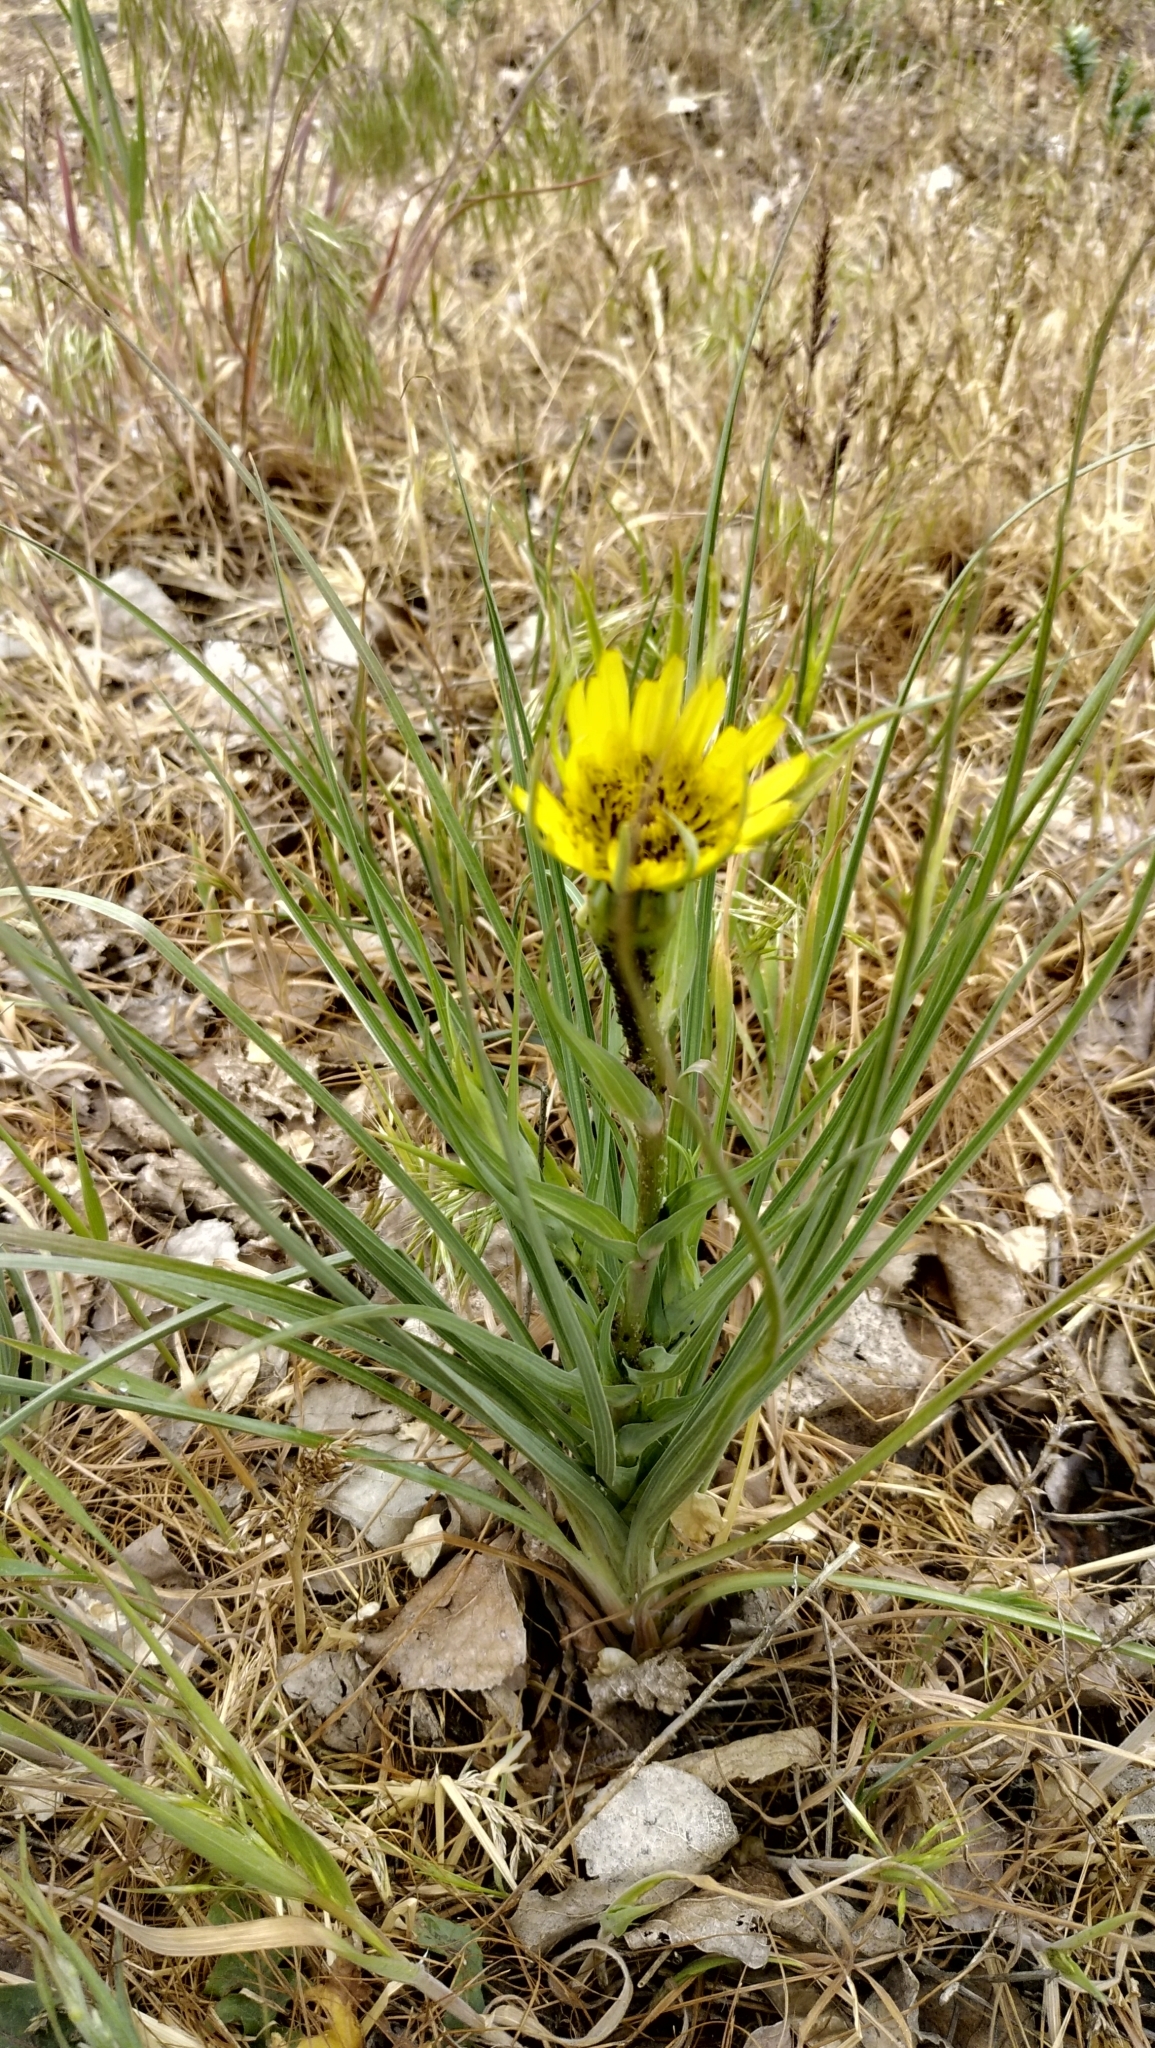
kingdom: Plantae
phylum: Tracheophyta
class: Magnoliopsida
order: Asterales
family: Asteraceae
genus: Tragopogon
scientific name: Tragopogon dubius
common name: Yellow salsify
